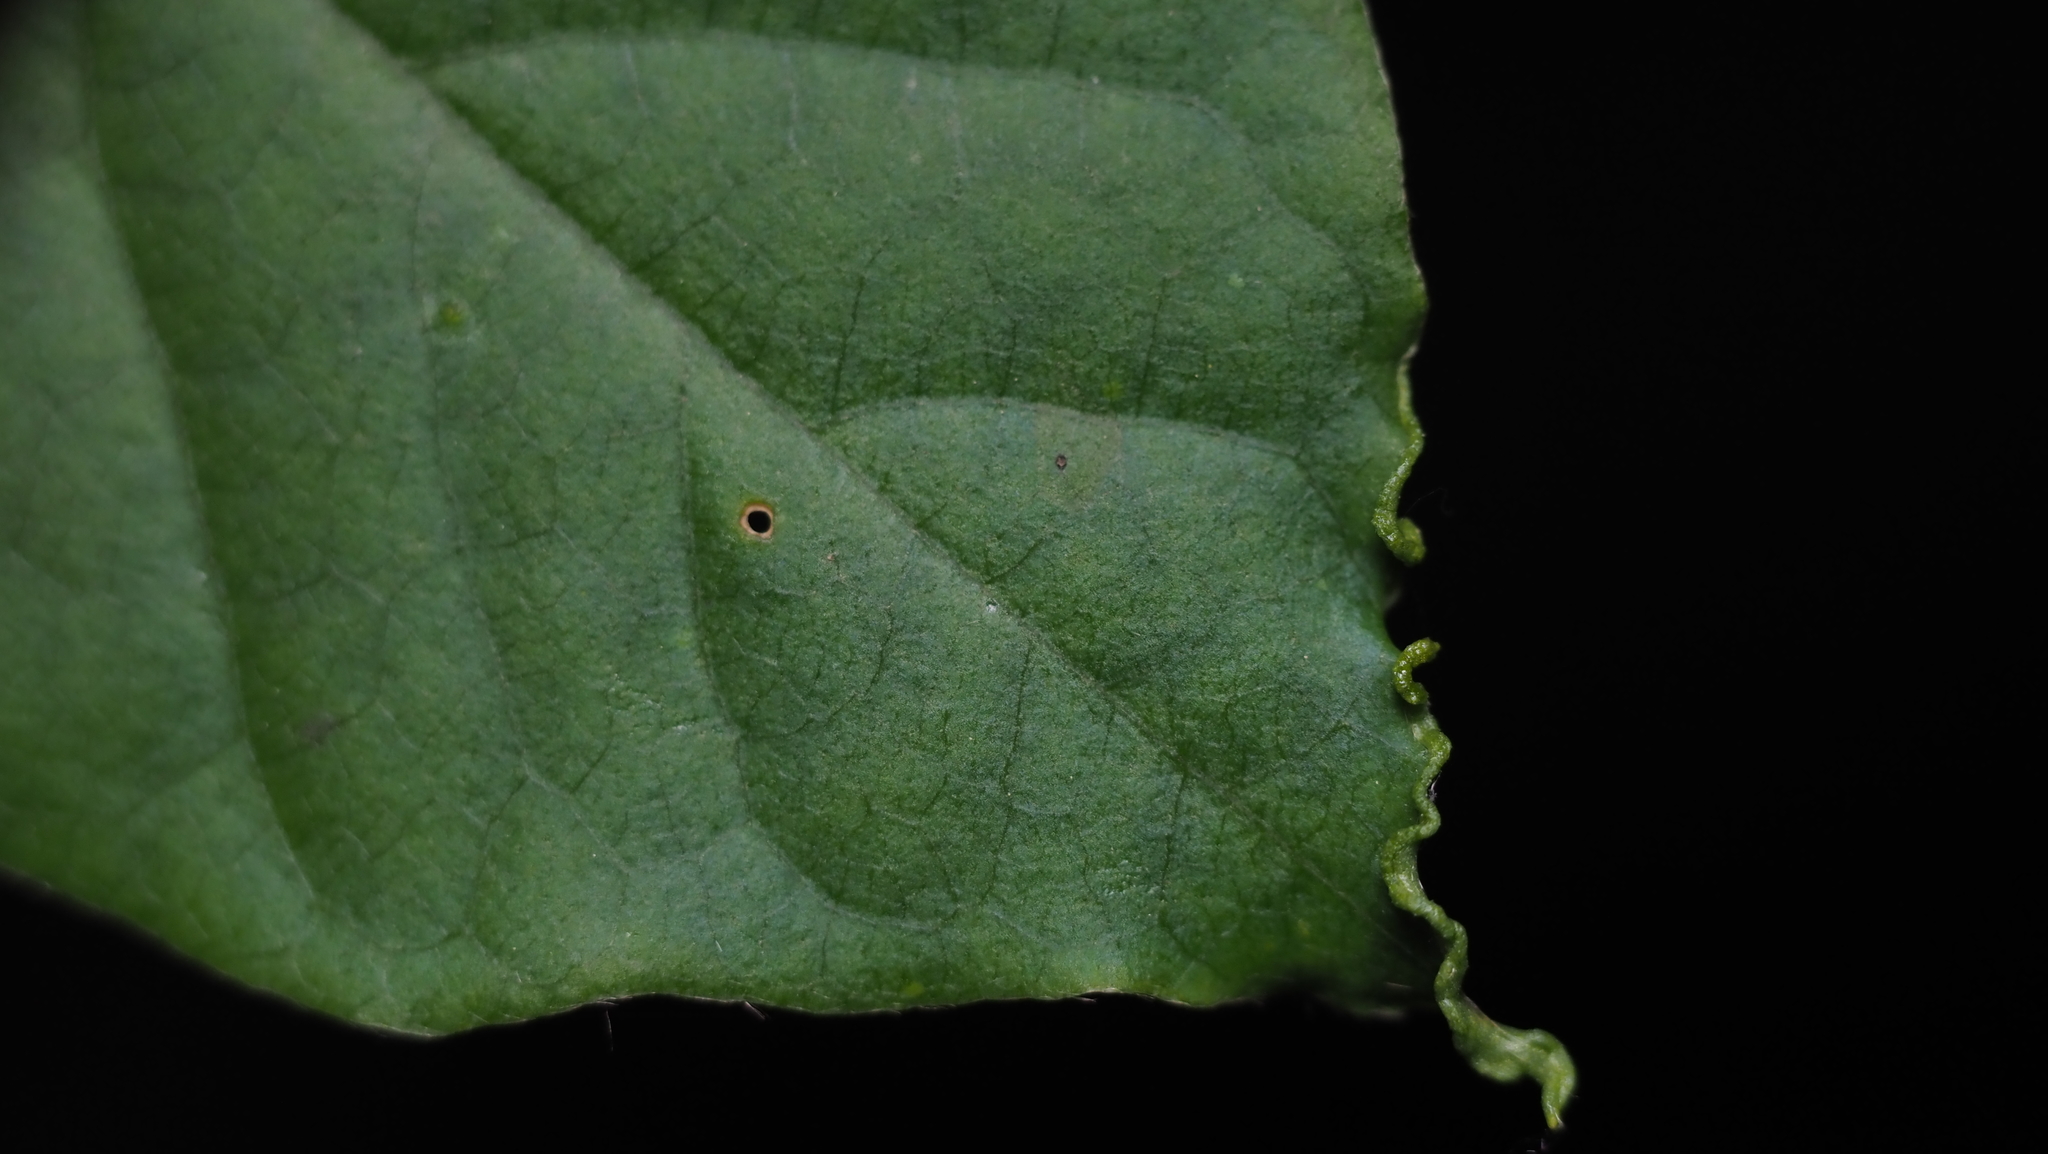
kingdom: Animalia
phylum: Arthropoda
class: Arachnida
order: Trombidiformes
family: Eriophyidae
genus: Aceria
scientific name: Aceria
